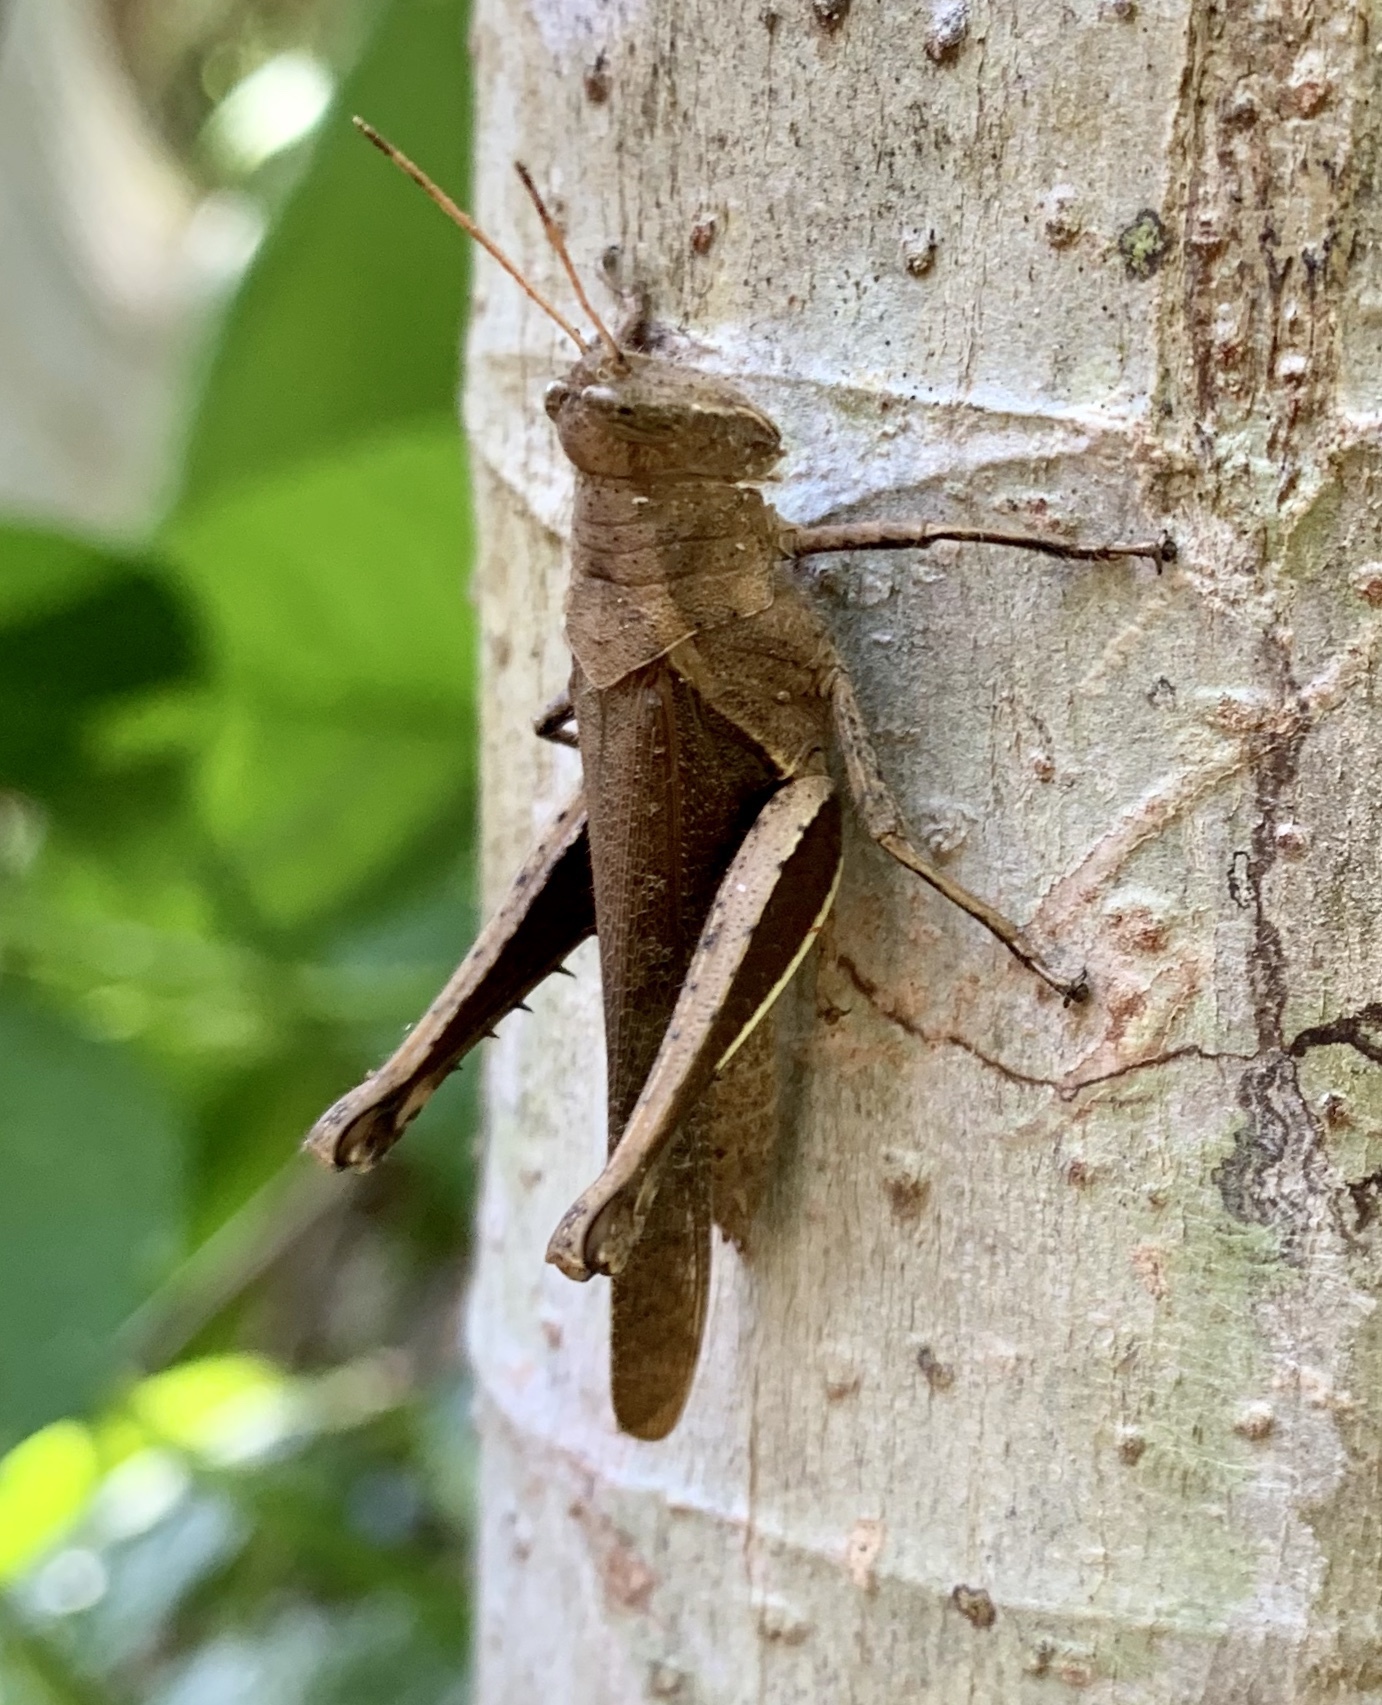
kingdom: Animalia
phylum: Arthropoda
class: Insecta
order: Orthoptera
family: Acrididae
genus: Abracris
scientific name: Abracris flavolineata
